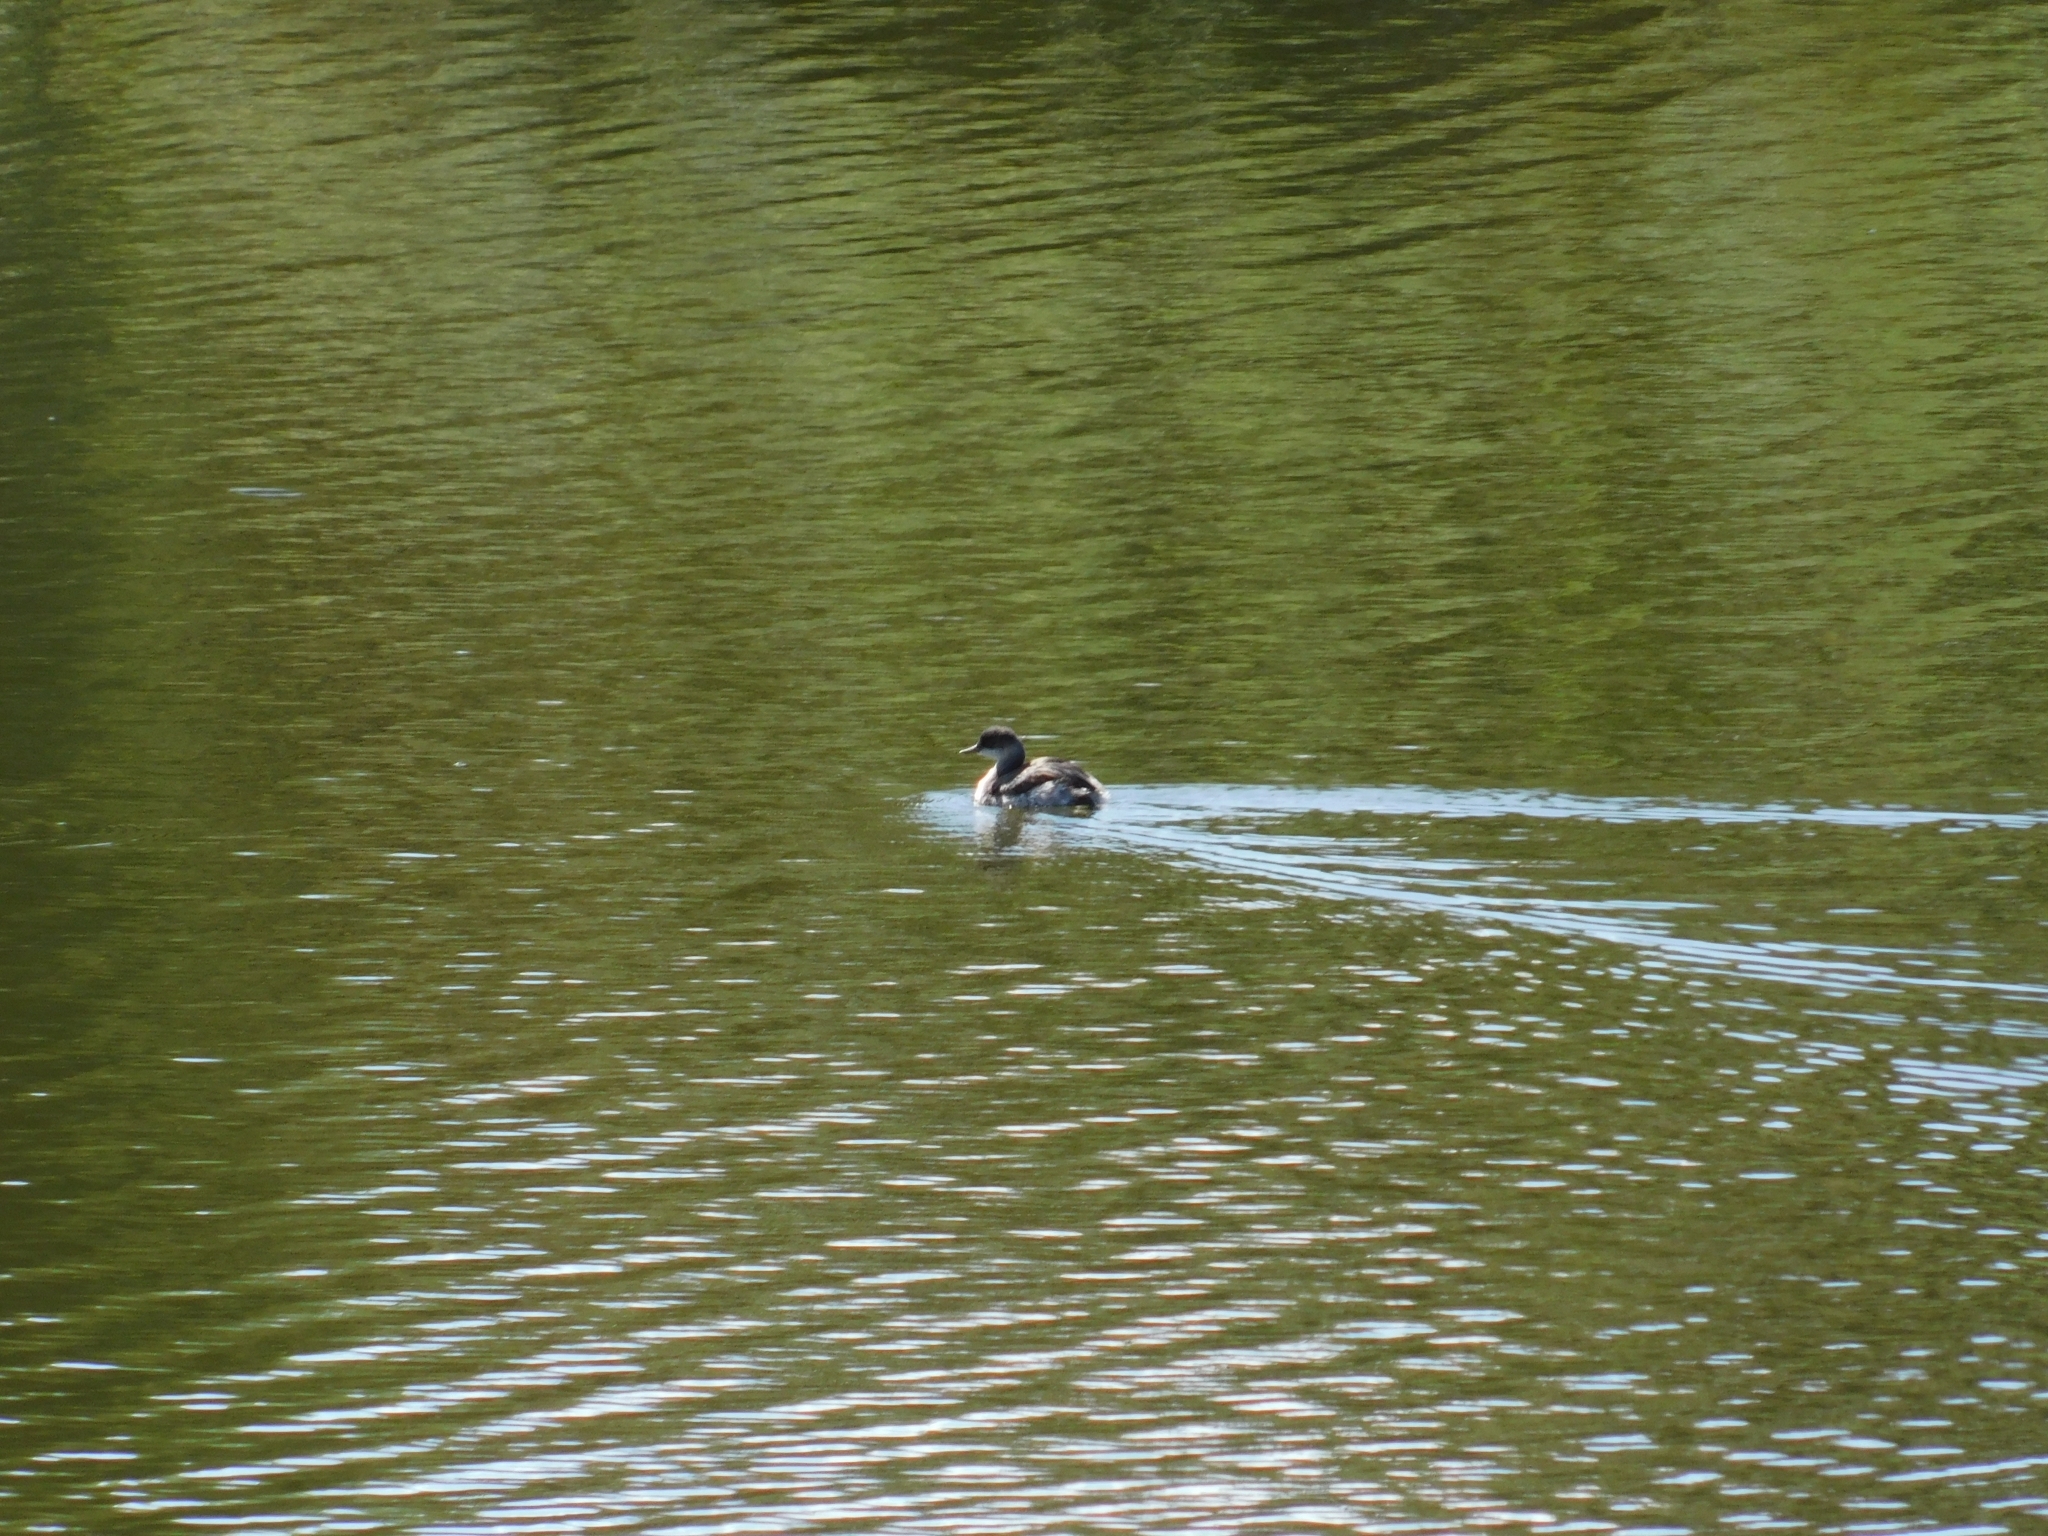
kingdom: Animalia
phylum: Chordata
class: Aves
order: Podicipediformes
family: Podicipedidae
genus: Podiceps
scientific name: Podiceps nigricollis
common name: Black-necked grebe
